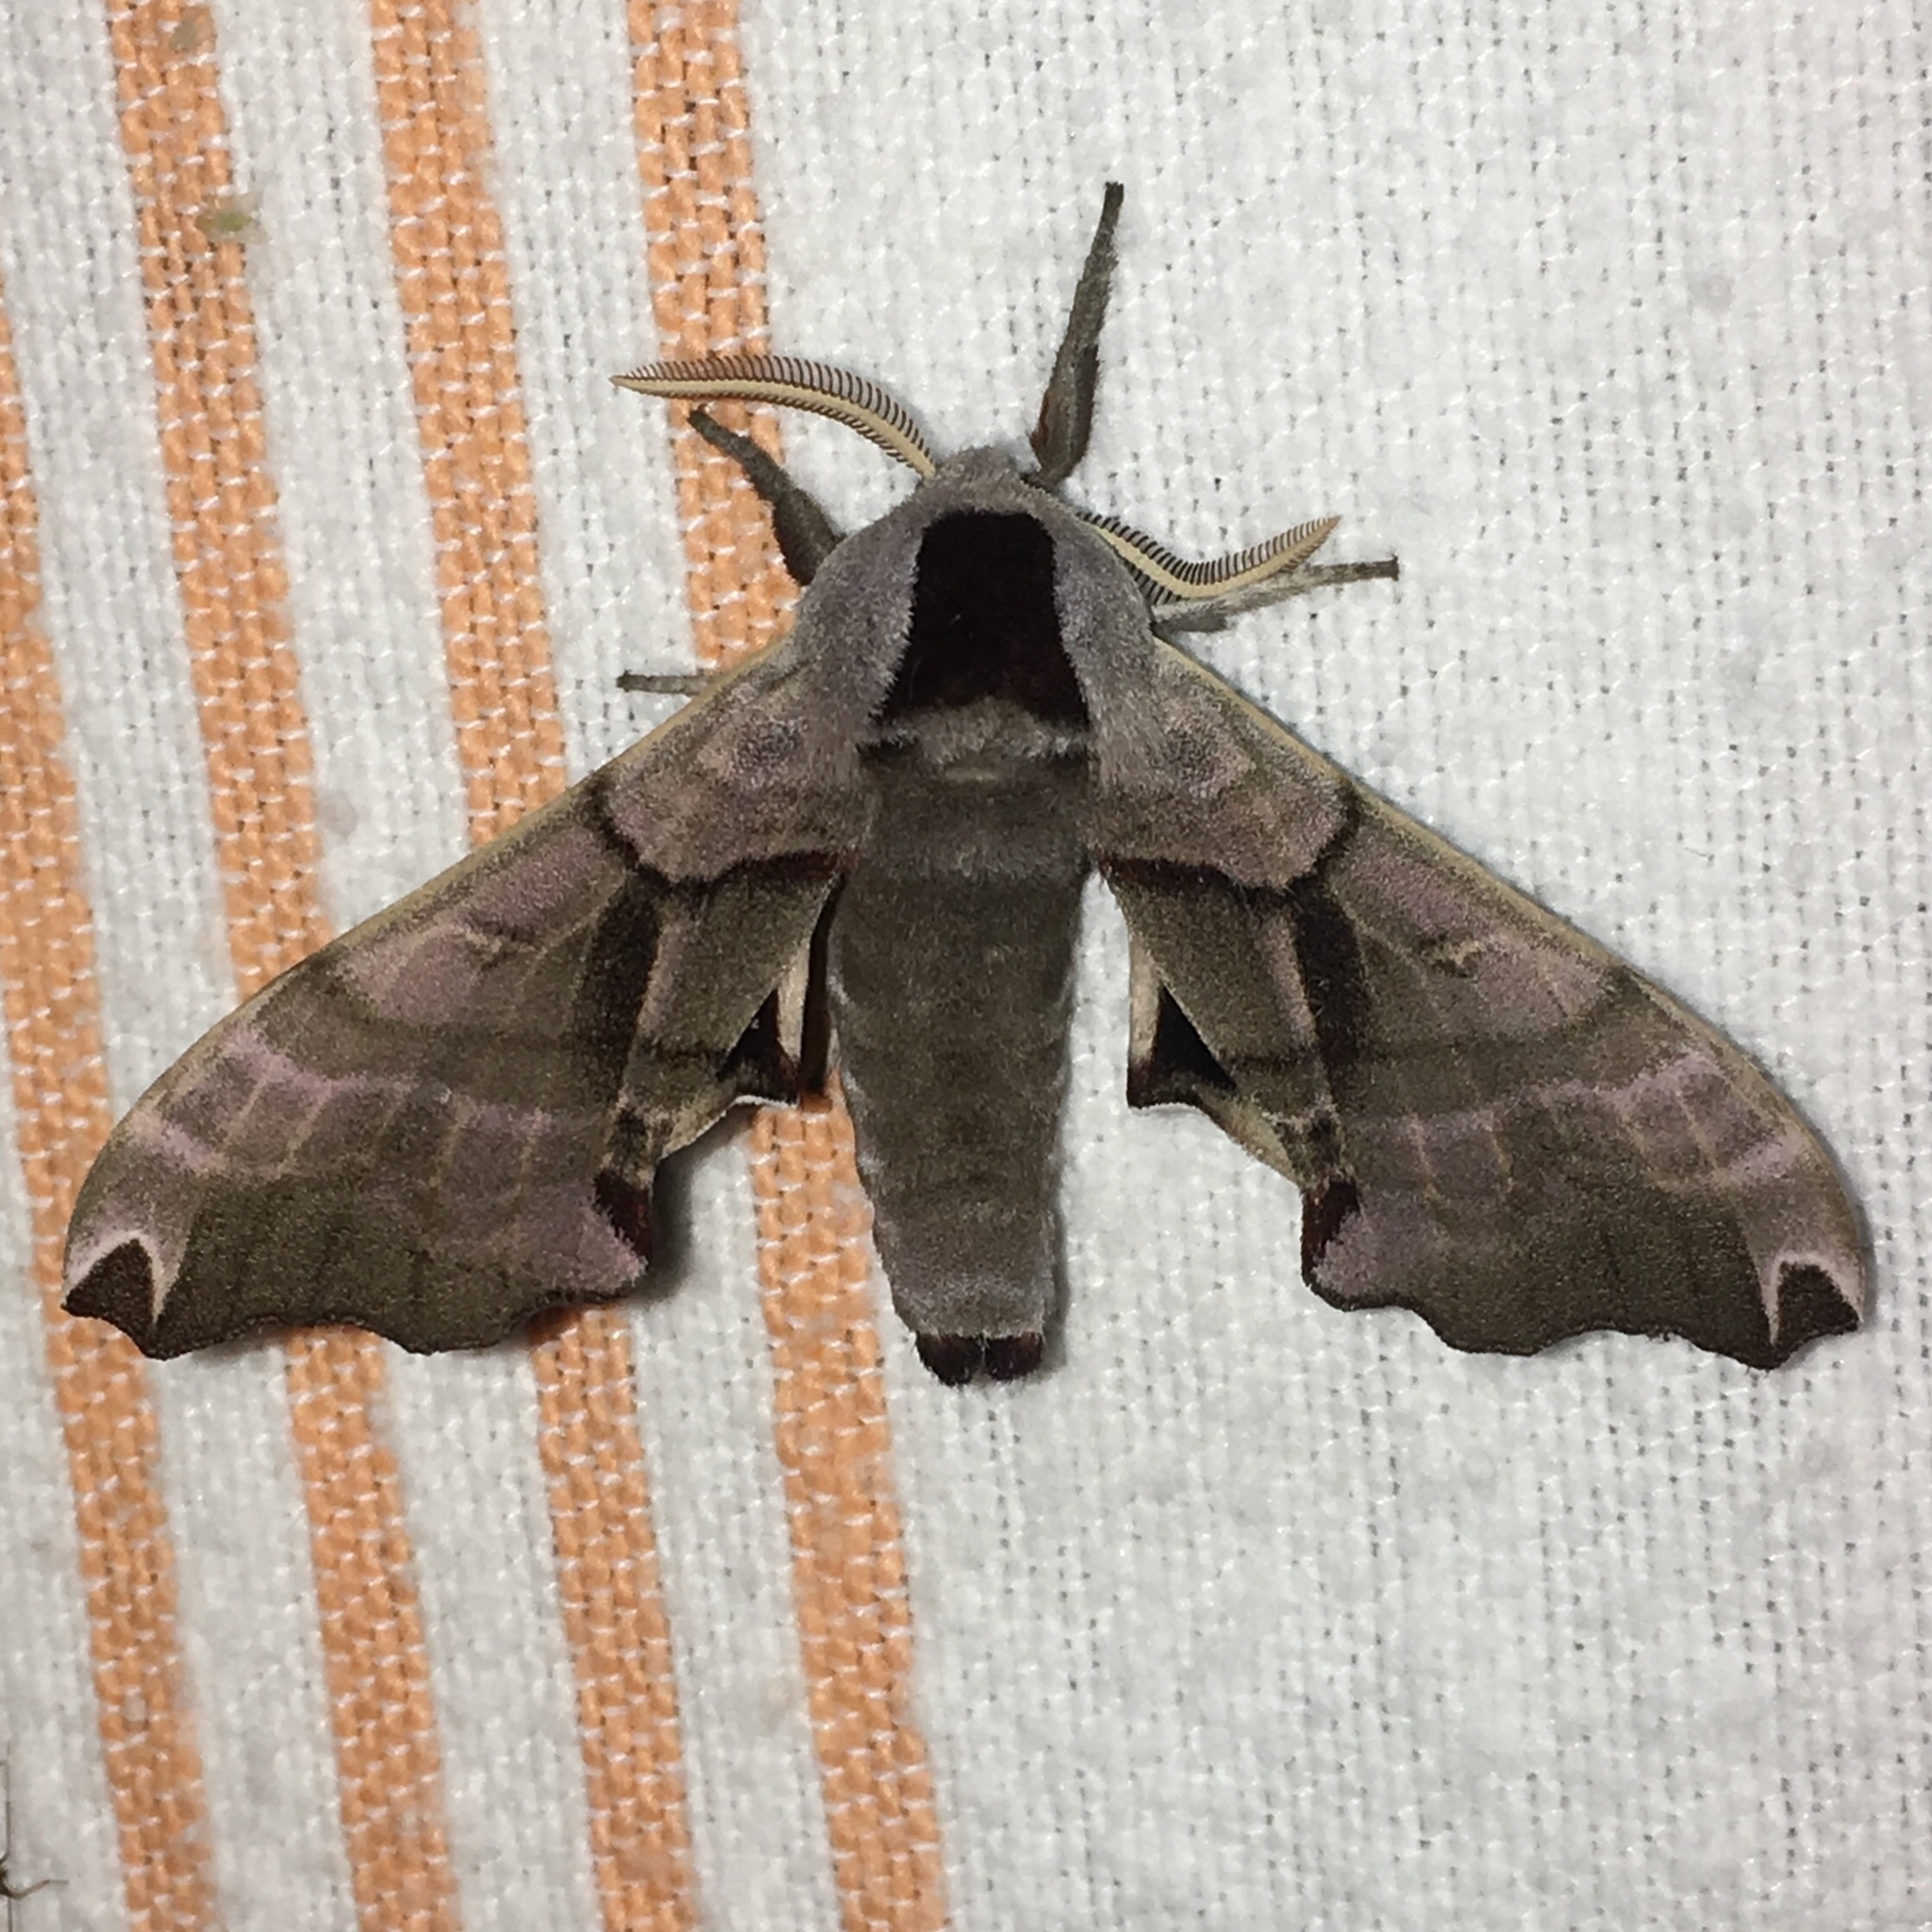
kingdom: Animalia
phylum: Arthropoda
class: Insecta
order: Lepidoptera
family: Sphingidae
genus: Smerinthus
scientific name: Smerinthus jamaicensis
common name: Twin spotted sphinx
